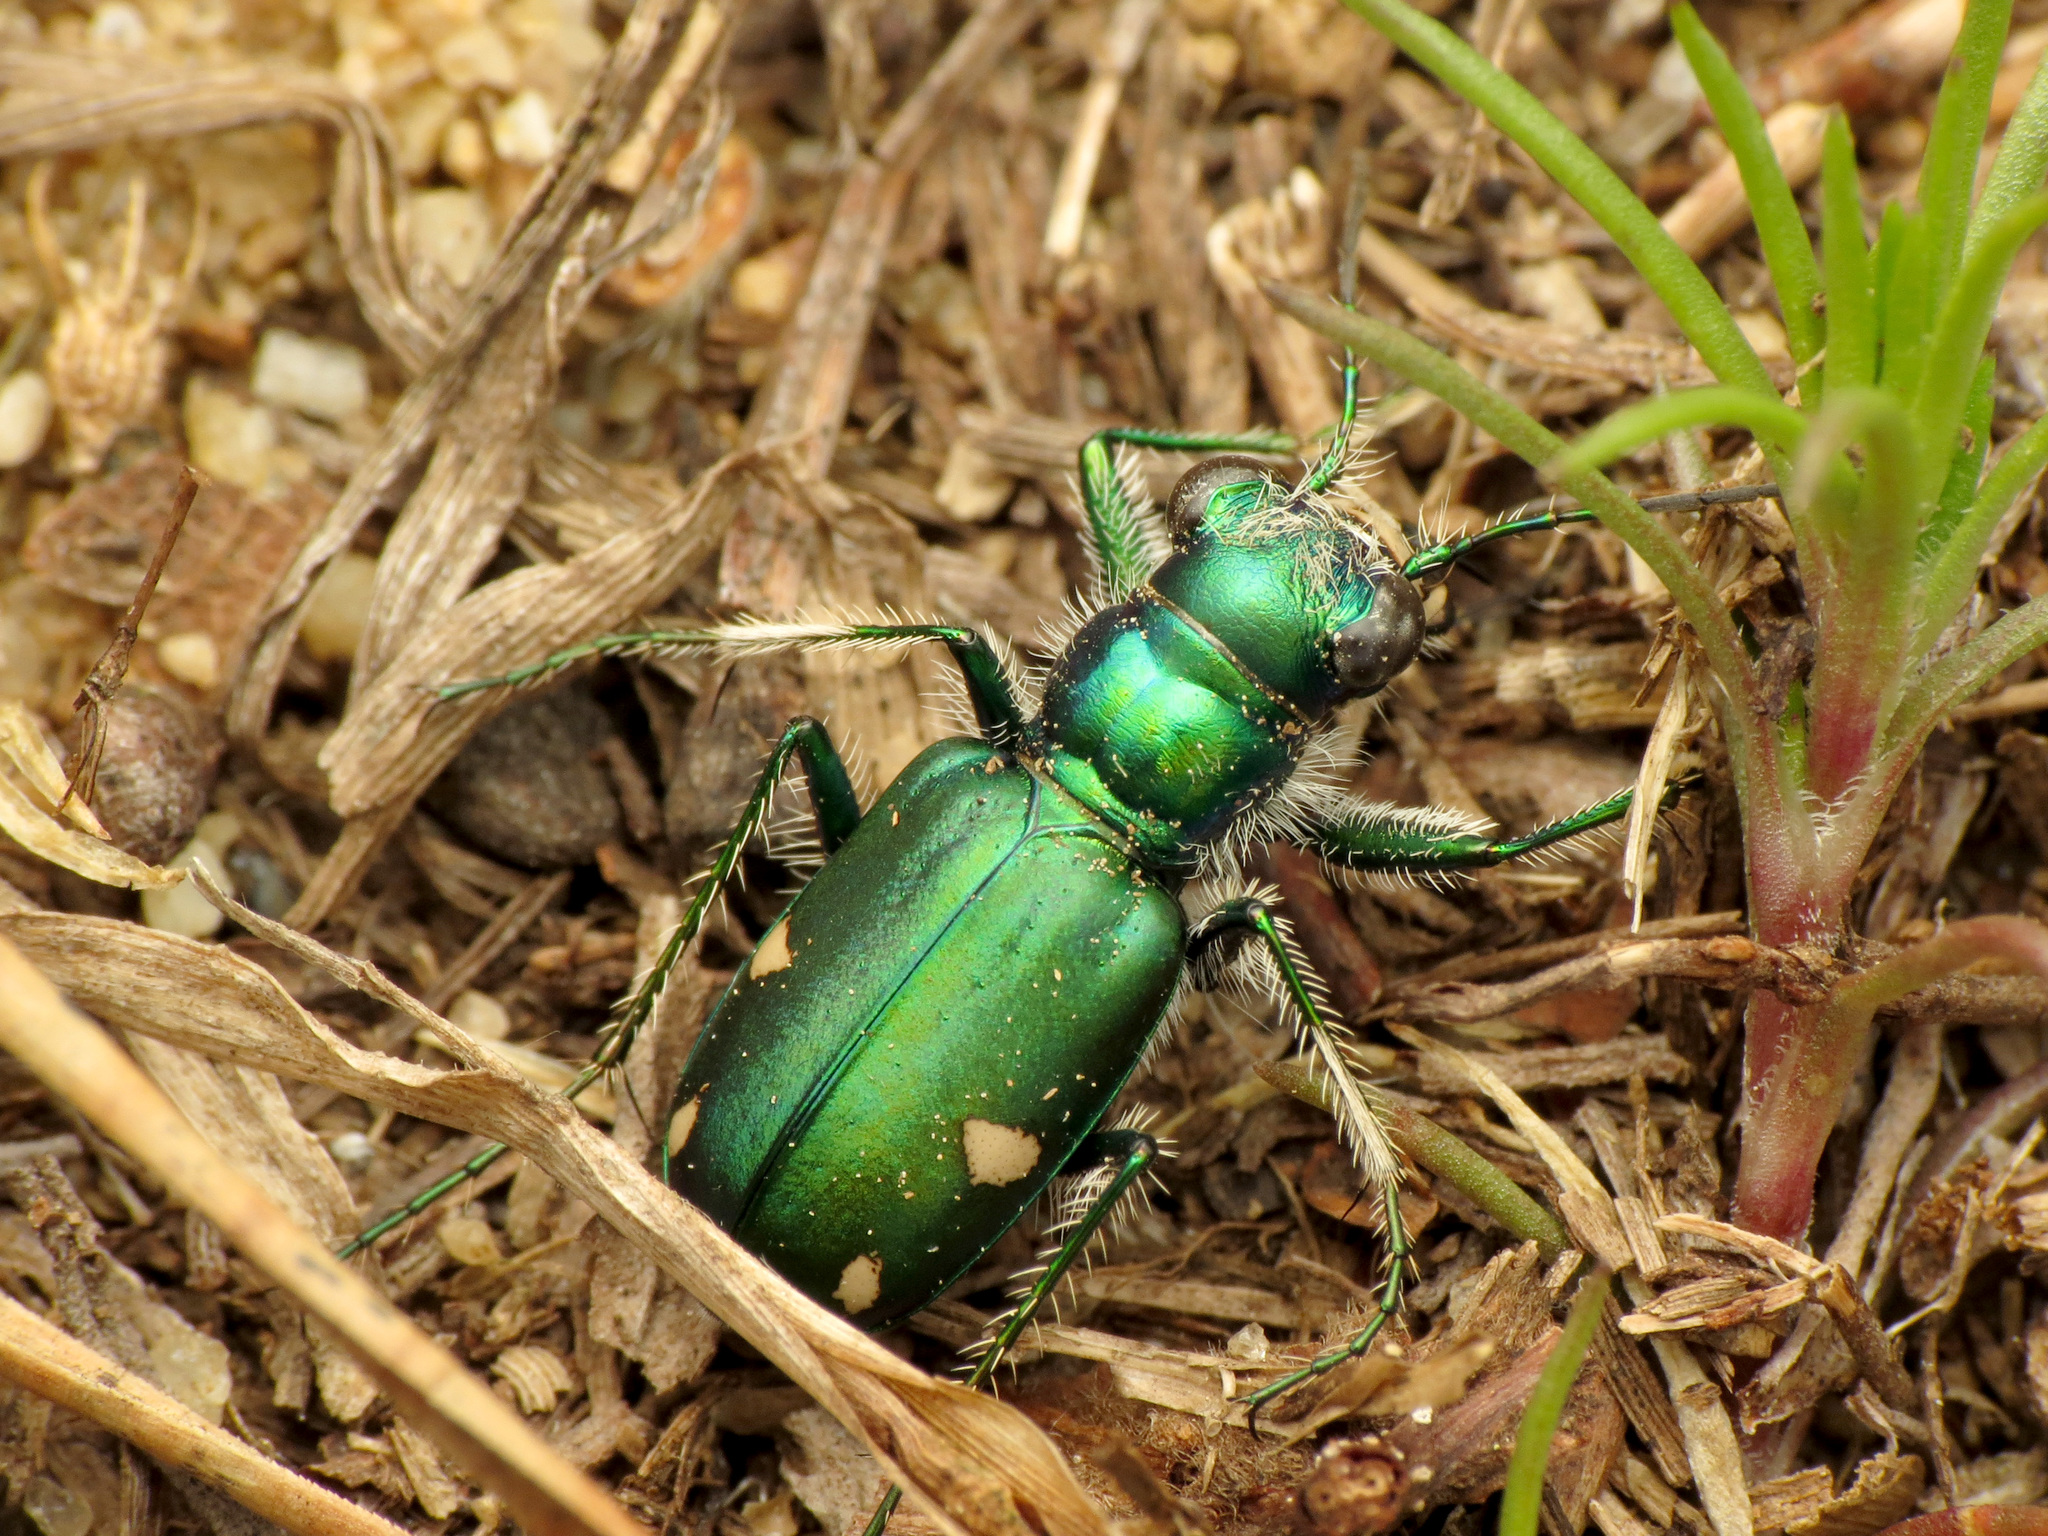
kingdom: Animalia
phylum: Arthropoda
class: Insecta
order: Coleoptera
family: Carabidae
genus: Cicindela
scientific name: Cicindela scutellaris
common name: Festive tiger beetle
